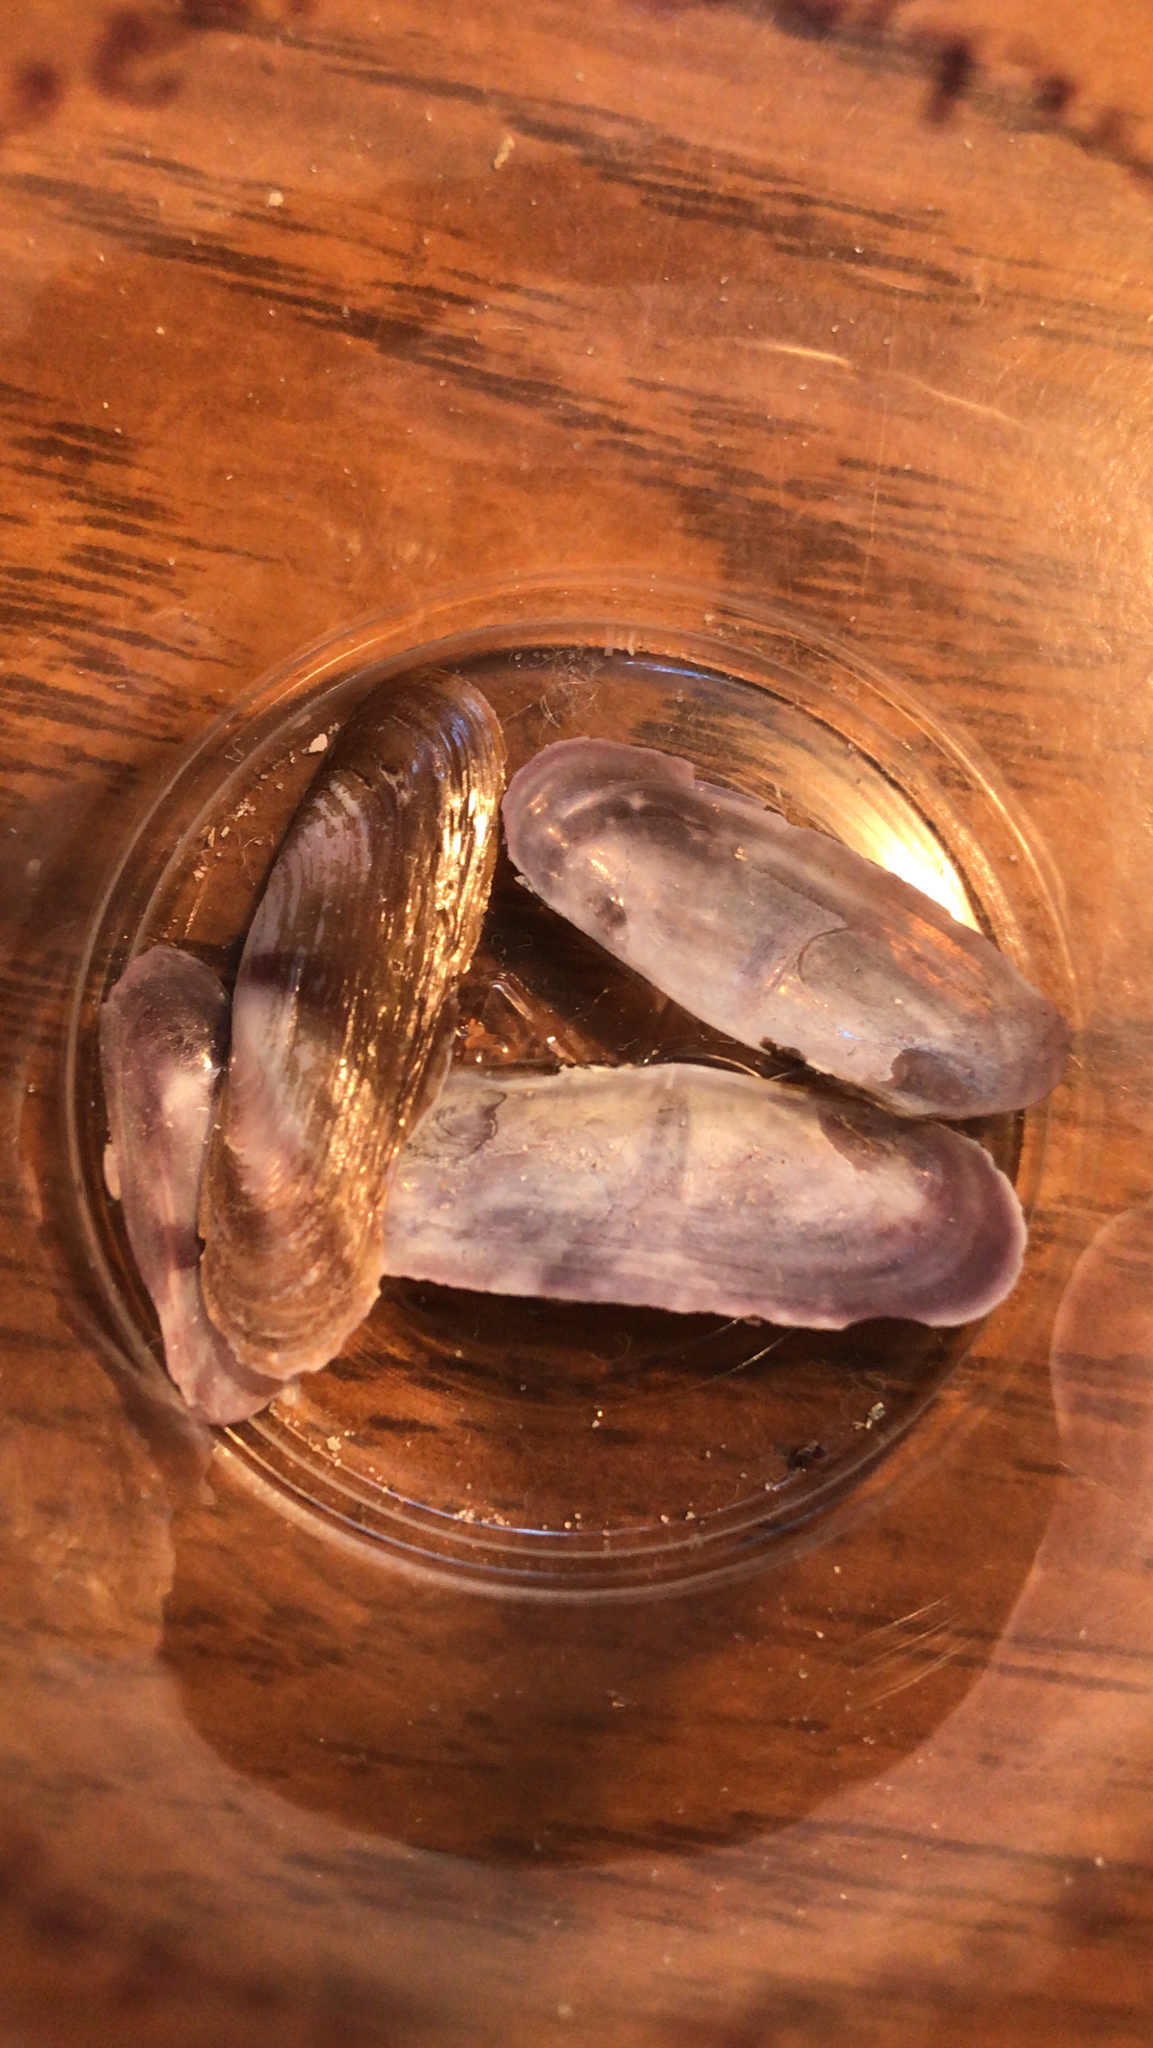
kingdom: Animalia
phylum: Mollusca
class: Bivalvia
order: Cardiida
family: Solecurtidae
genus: Tagelus
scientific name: Tagelus divisus
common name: Purplish tagelus
